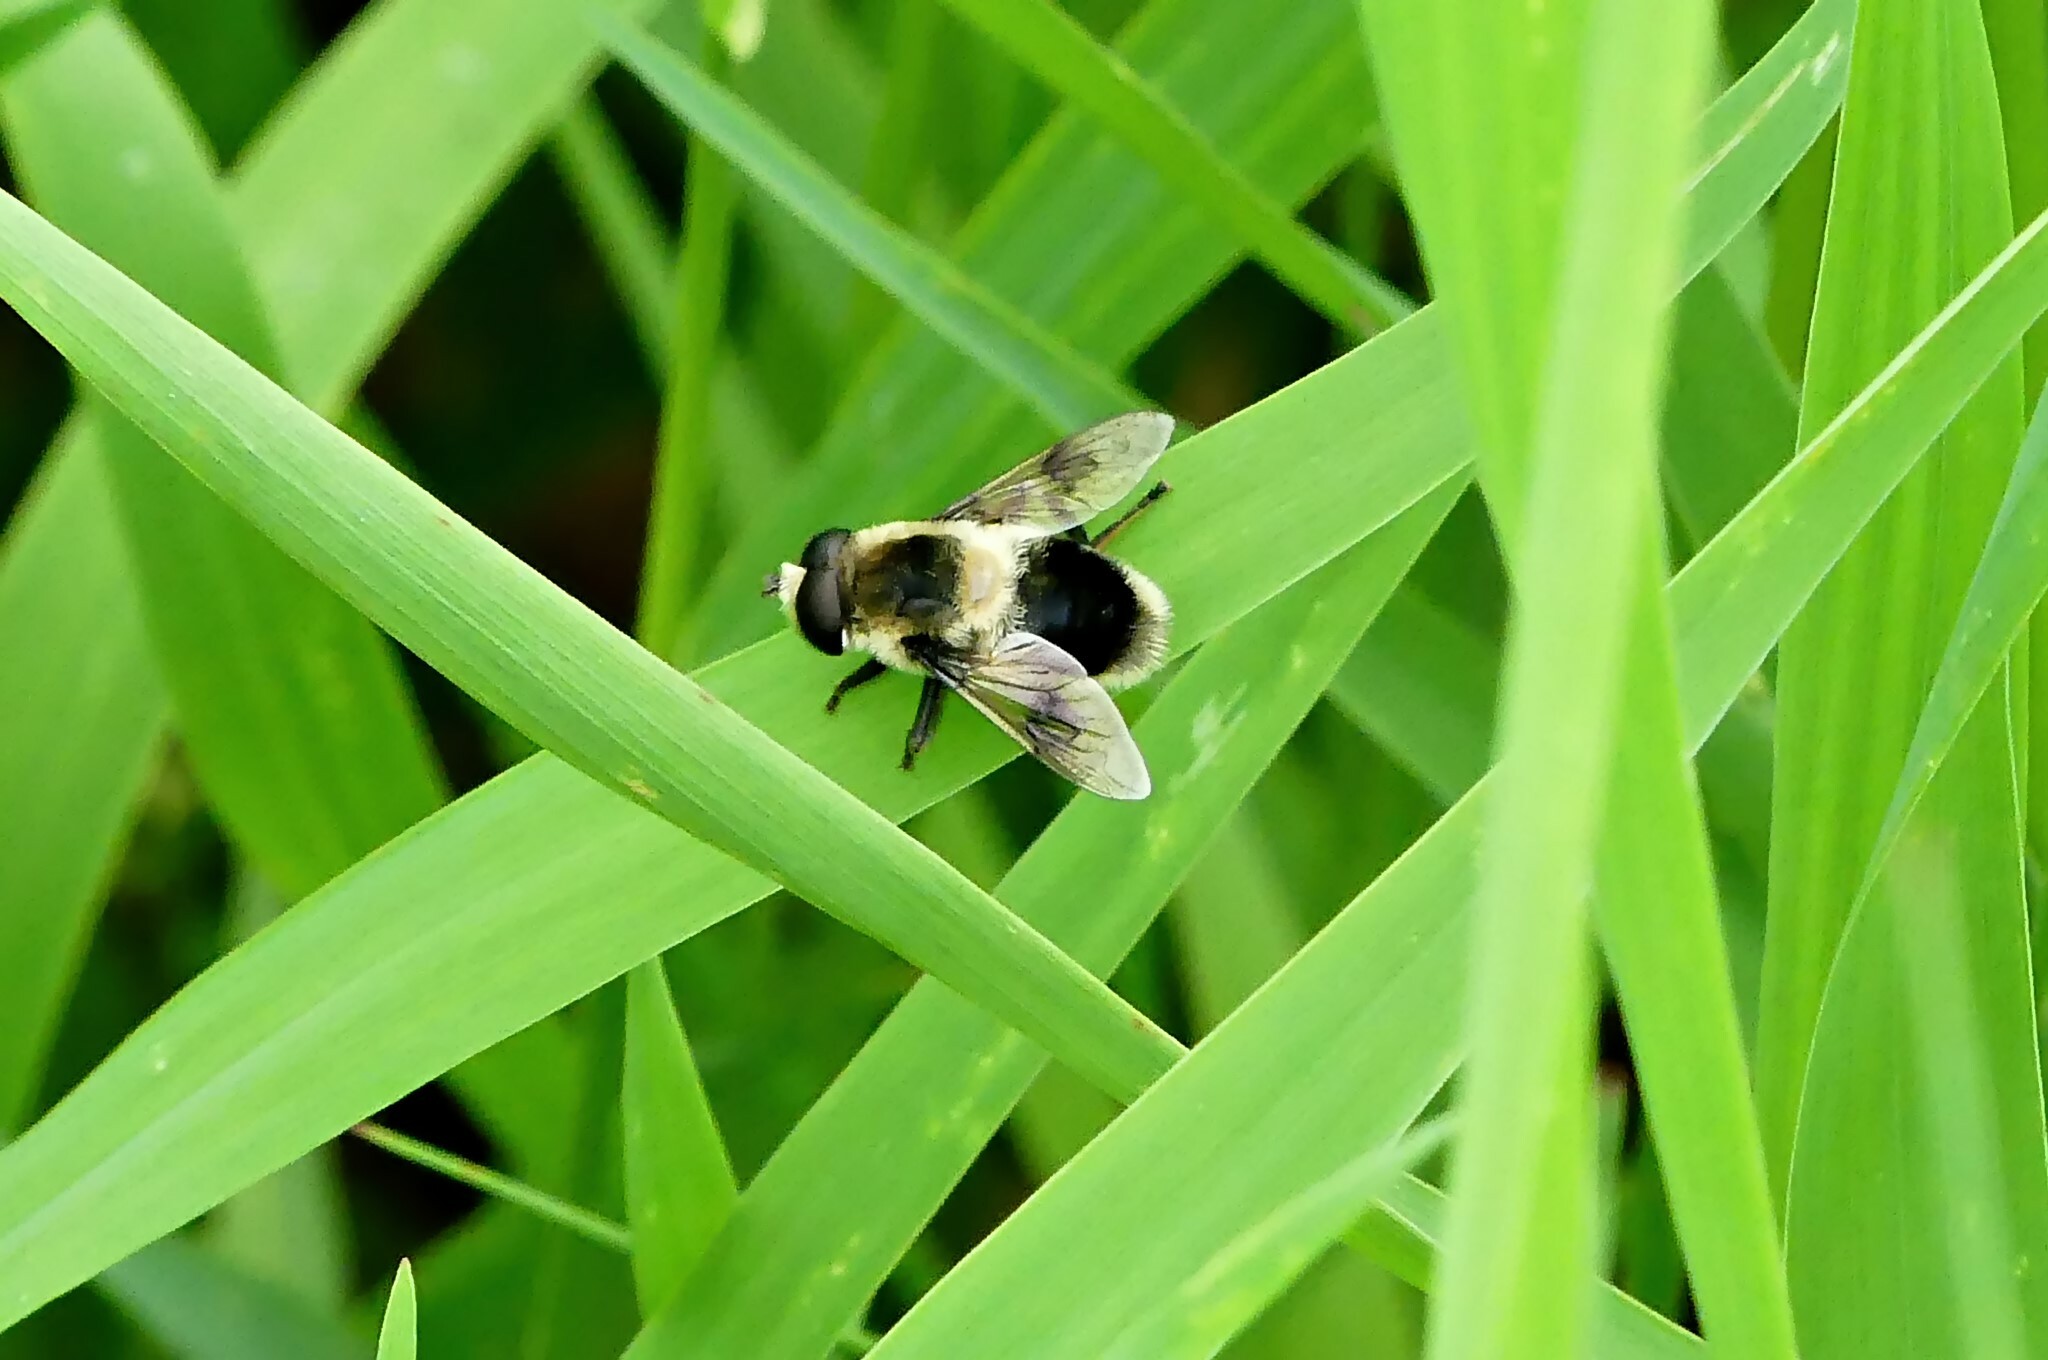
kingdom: Animalia
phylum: Arthropoda
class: Insecta
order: Diptera
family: Syrphidae
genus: Eristalis
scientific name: Eristalis anthophorina
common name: Orange-spotted drone fly
